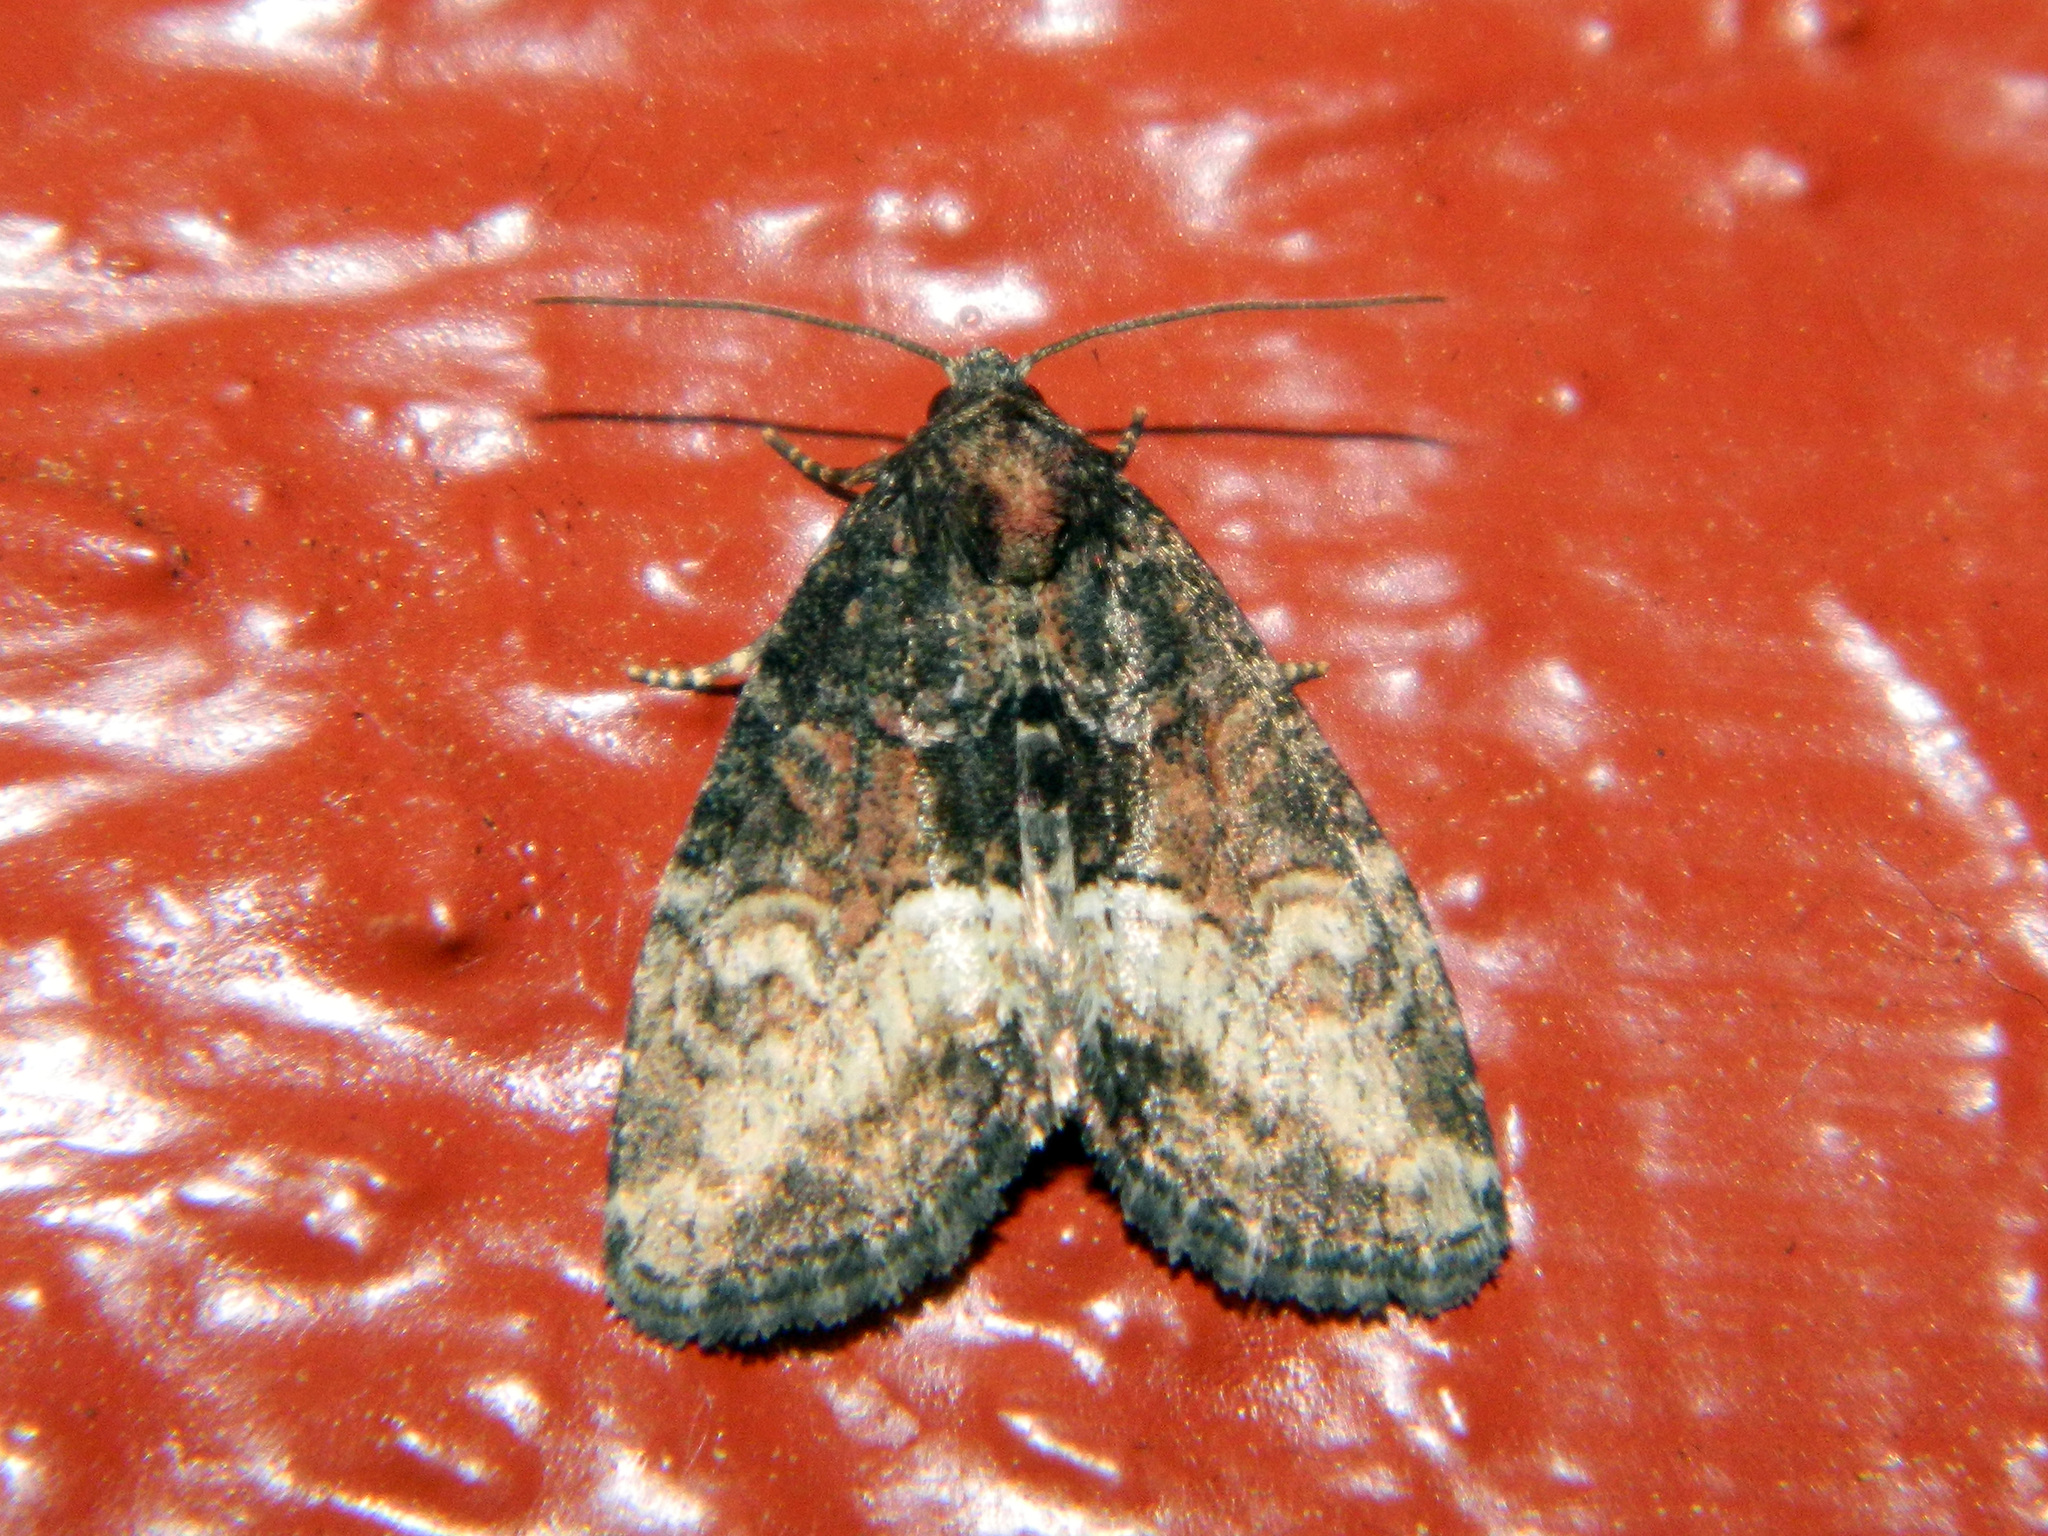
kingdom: Animalia
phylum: Arthropoda
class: Insecta
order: Lepidoptera
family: Noctuidae
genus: Neoligia
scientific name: Neoligia subjuncta
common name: Connected brocade
